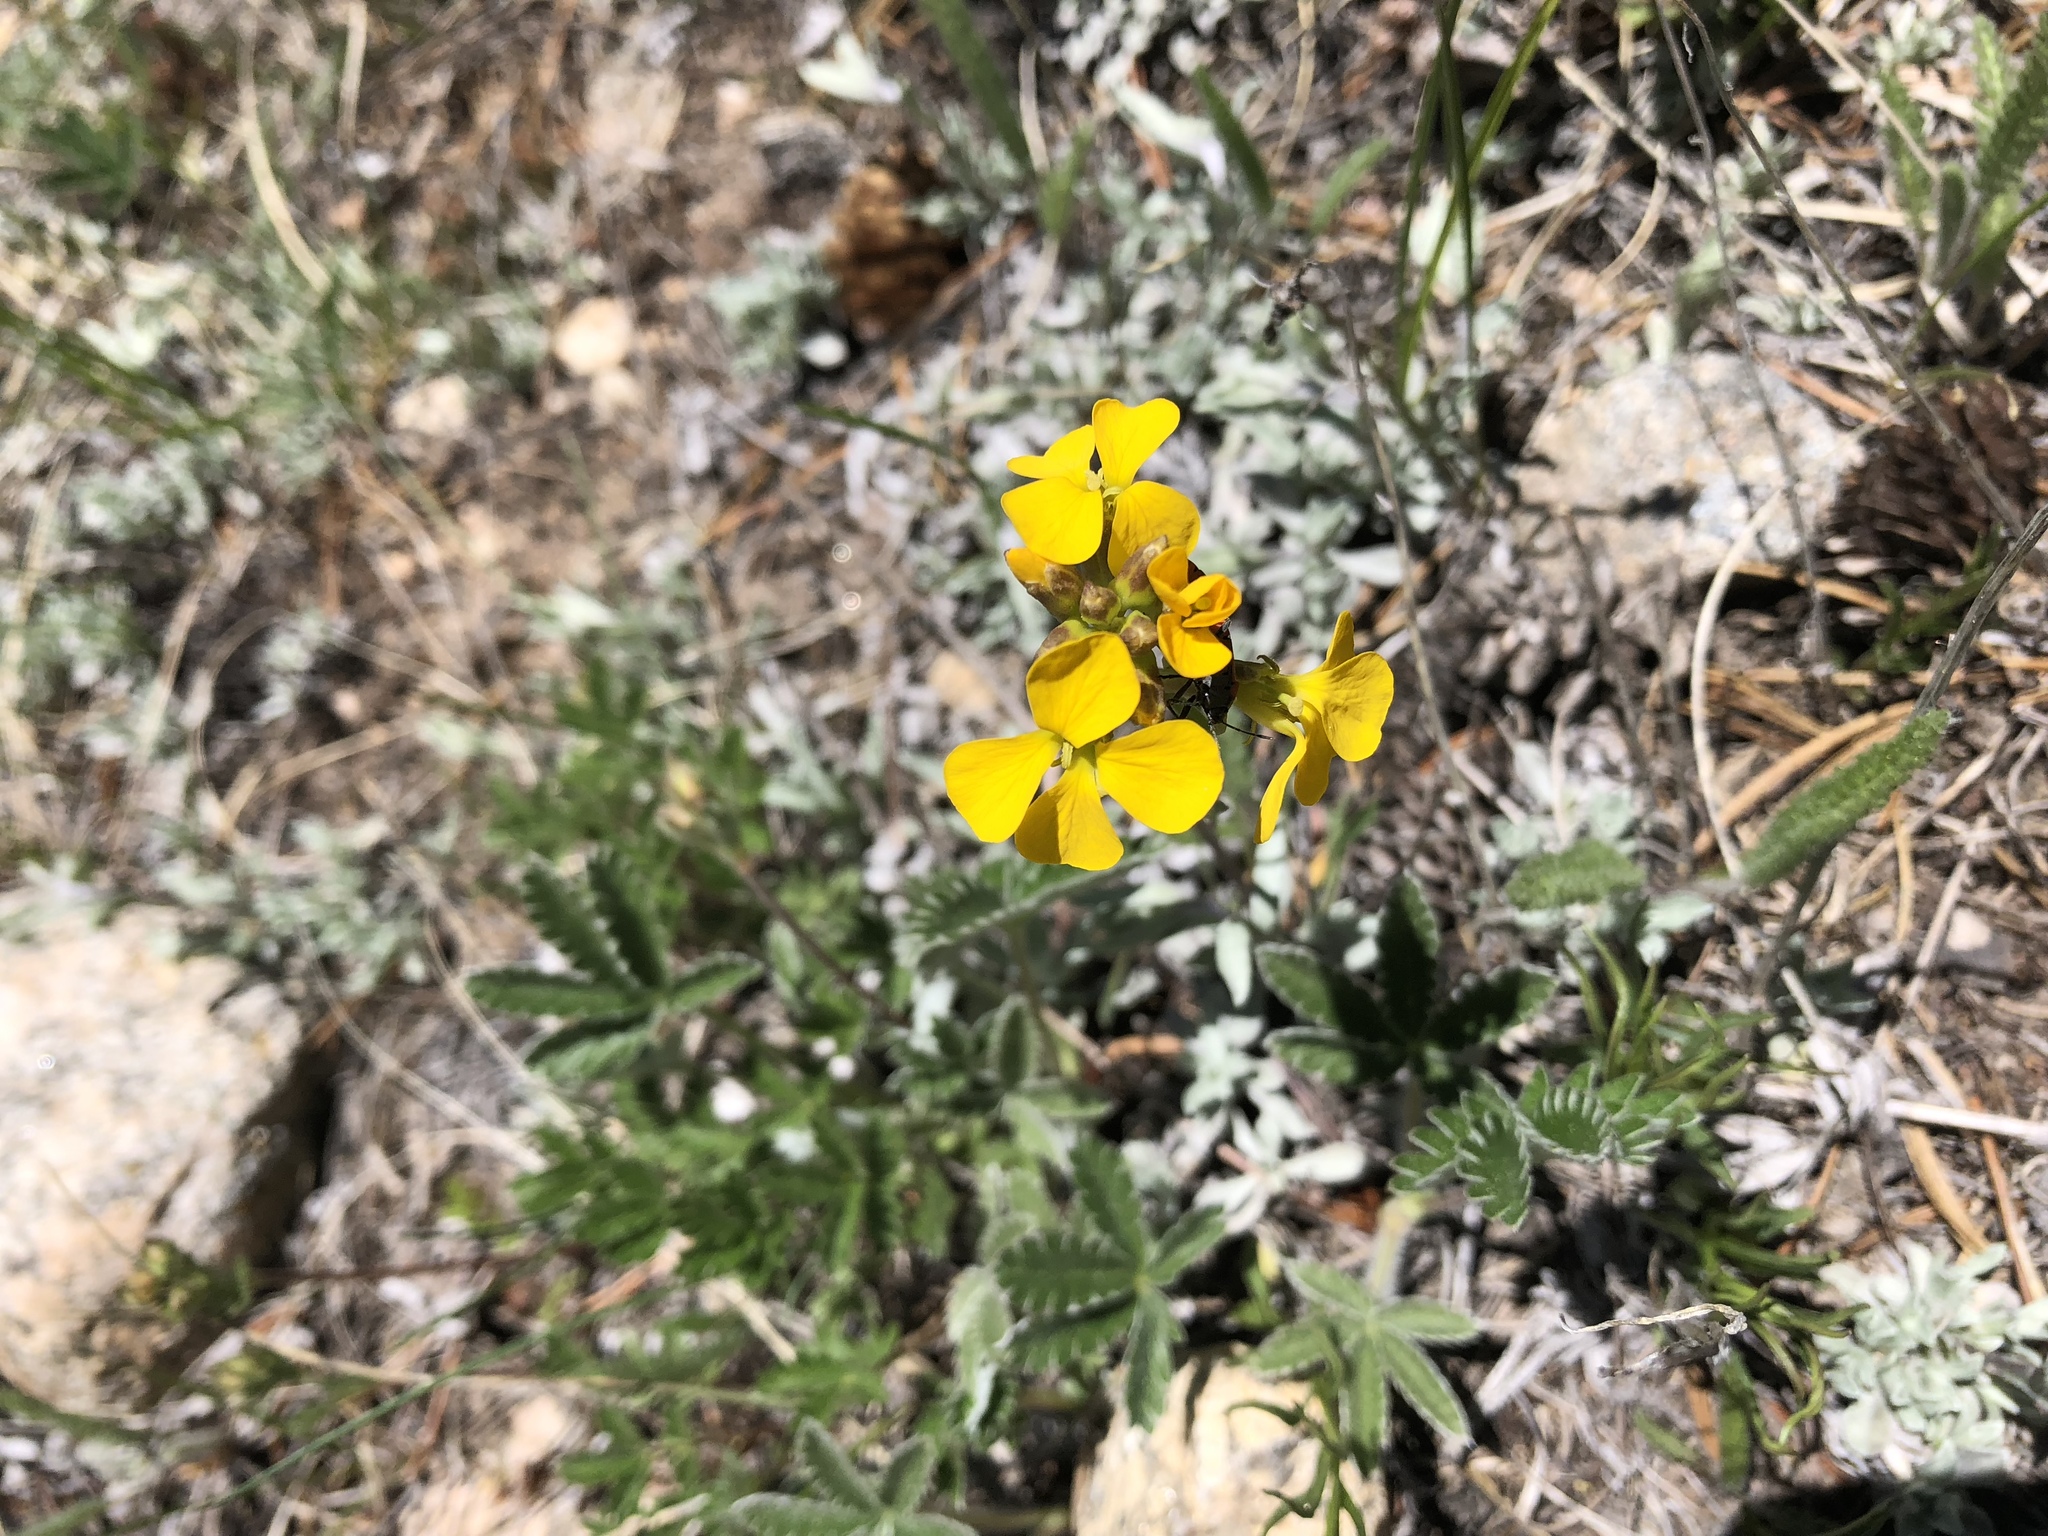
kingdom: Plantae
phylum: Tracheophyta
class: Magnoliopsida
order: Brassicales
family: Brassicaceae
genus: Erysimum
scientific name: Erysimum capitatum
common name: Western wallflower
